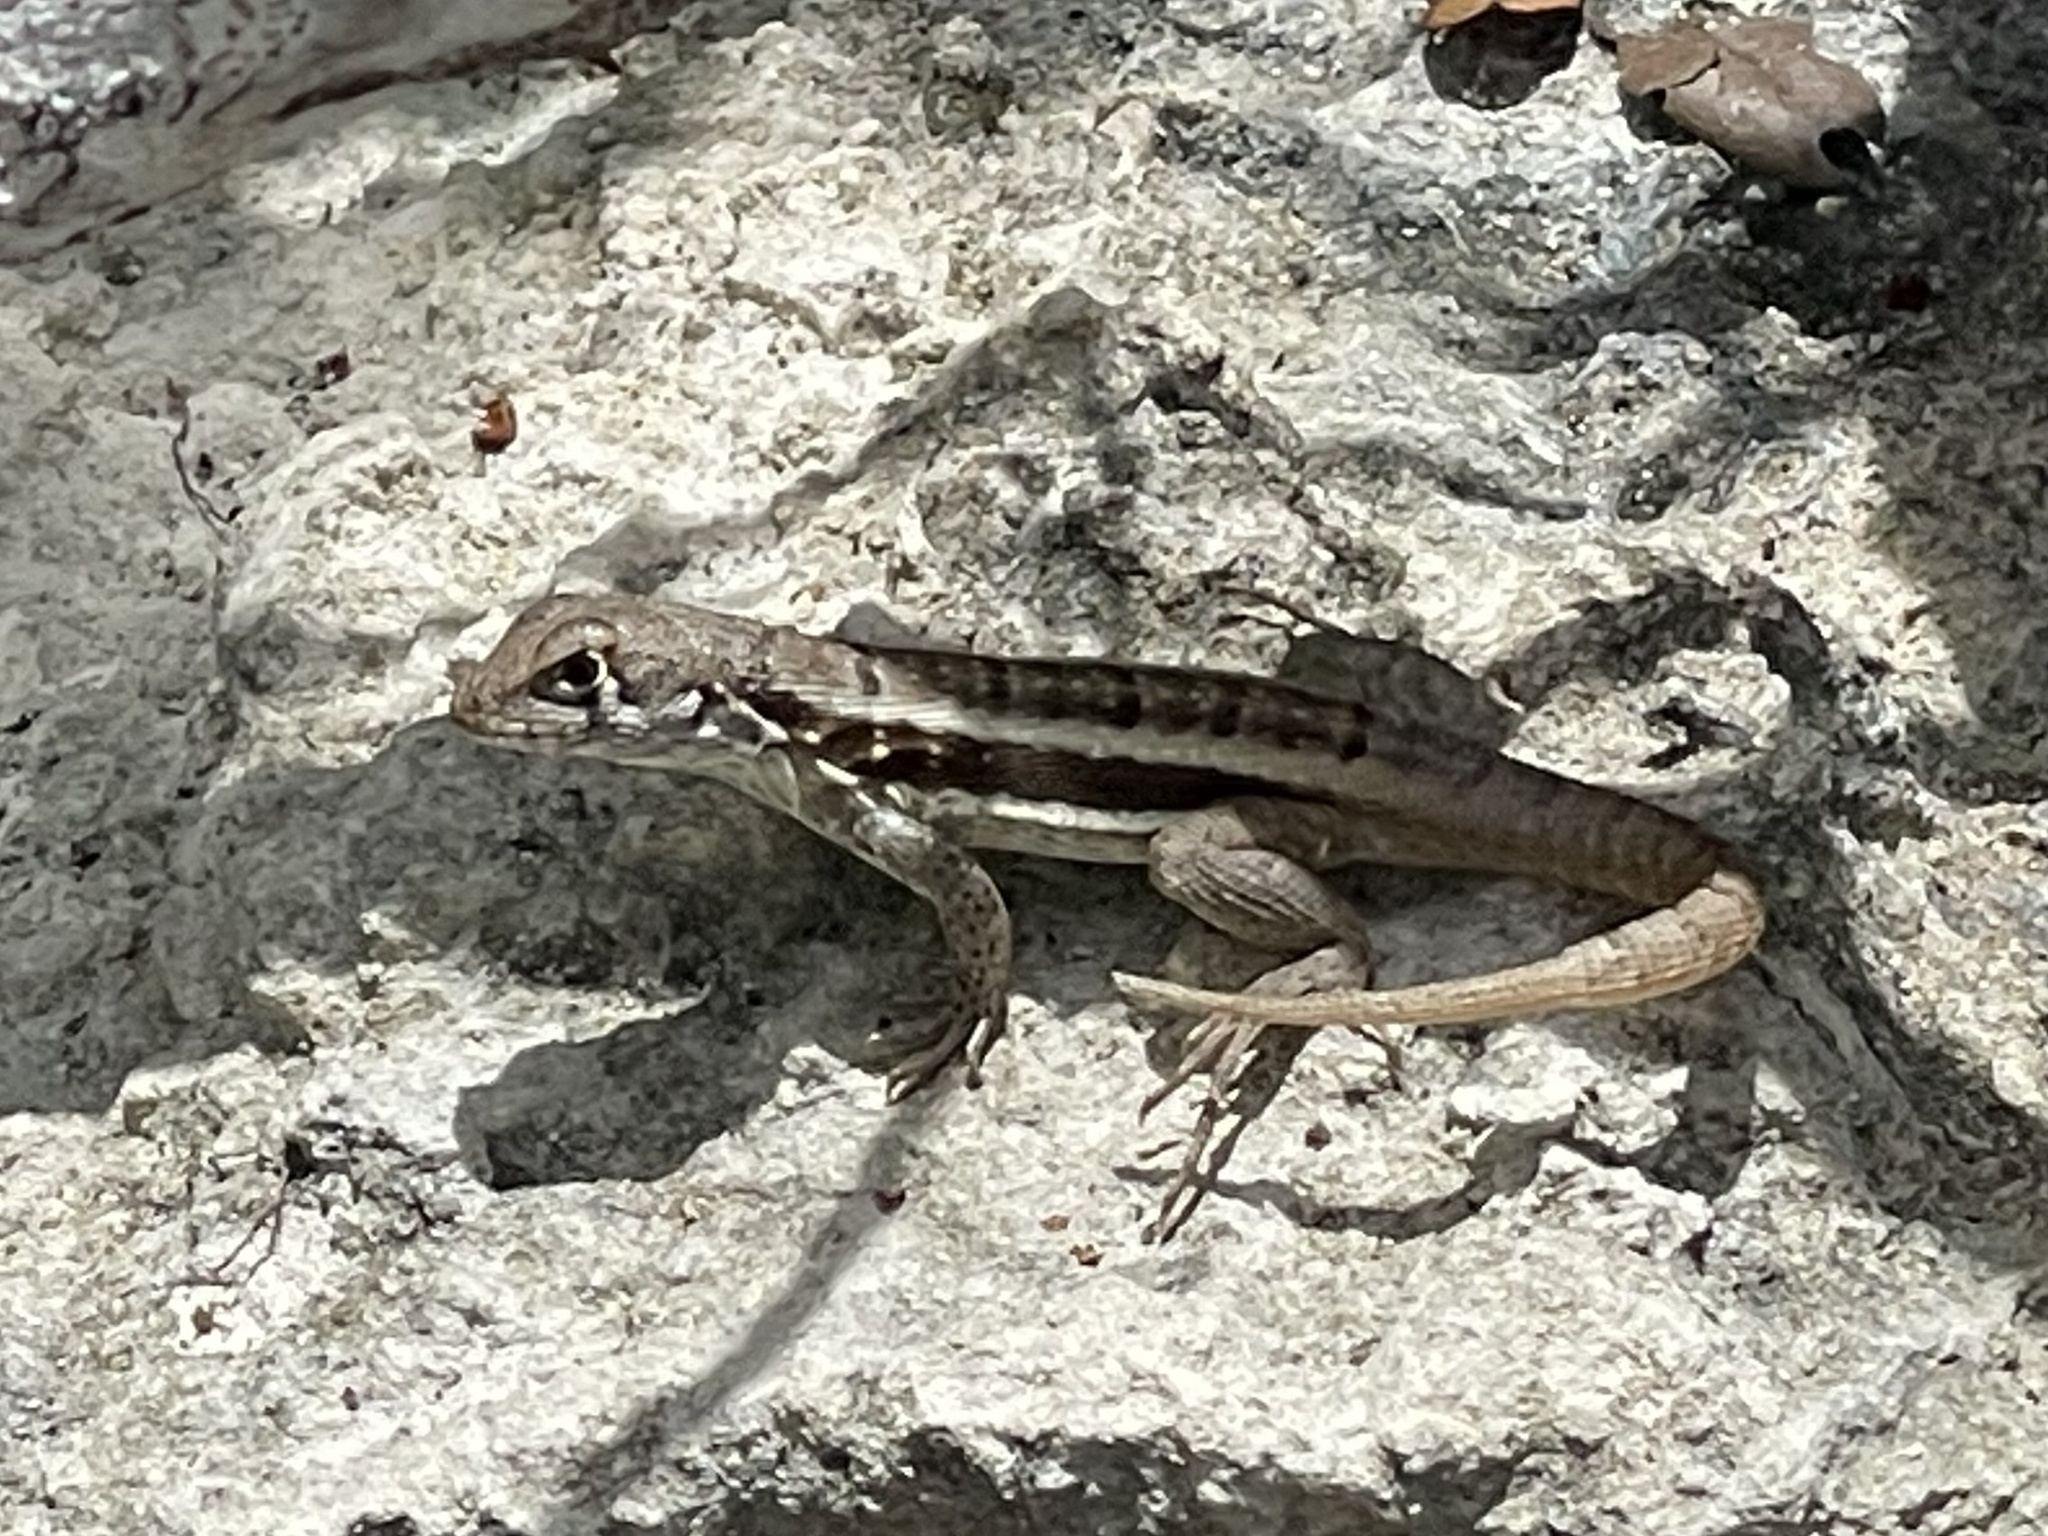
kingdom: Animalia
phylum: Chordata
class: Squamata
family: Leiocephalidae
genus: Leiocephalus
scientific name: Leiocephalus psammodromus
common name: Bastion cay curlytail lizard
